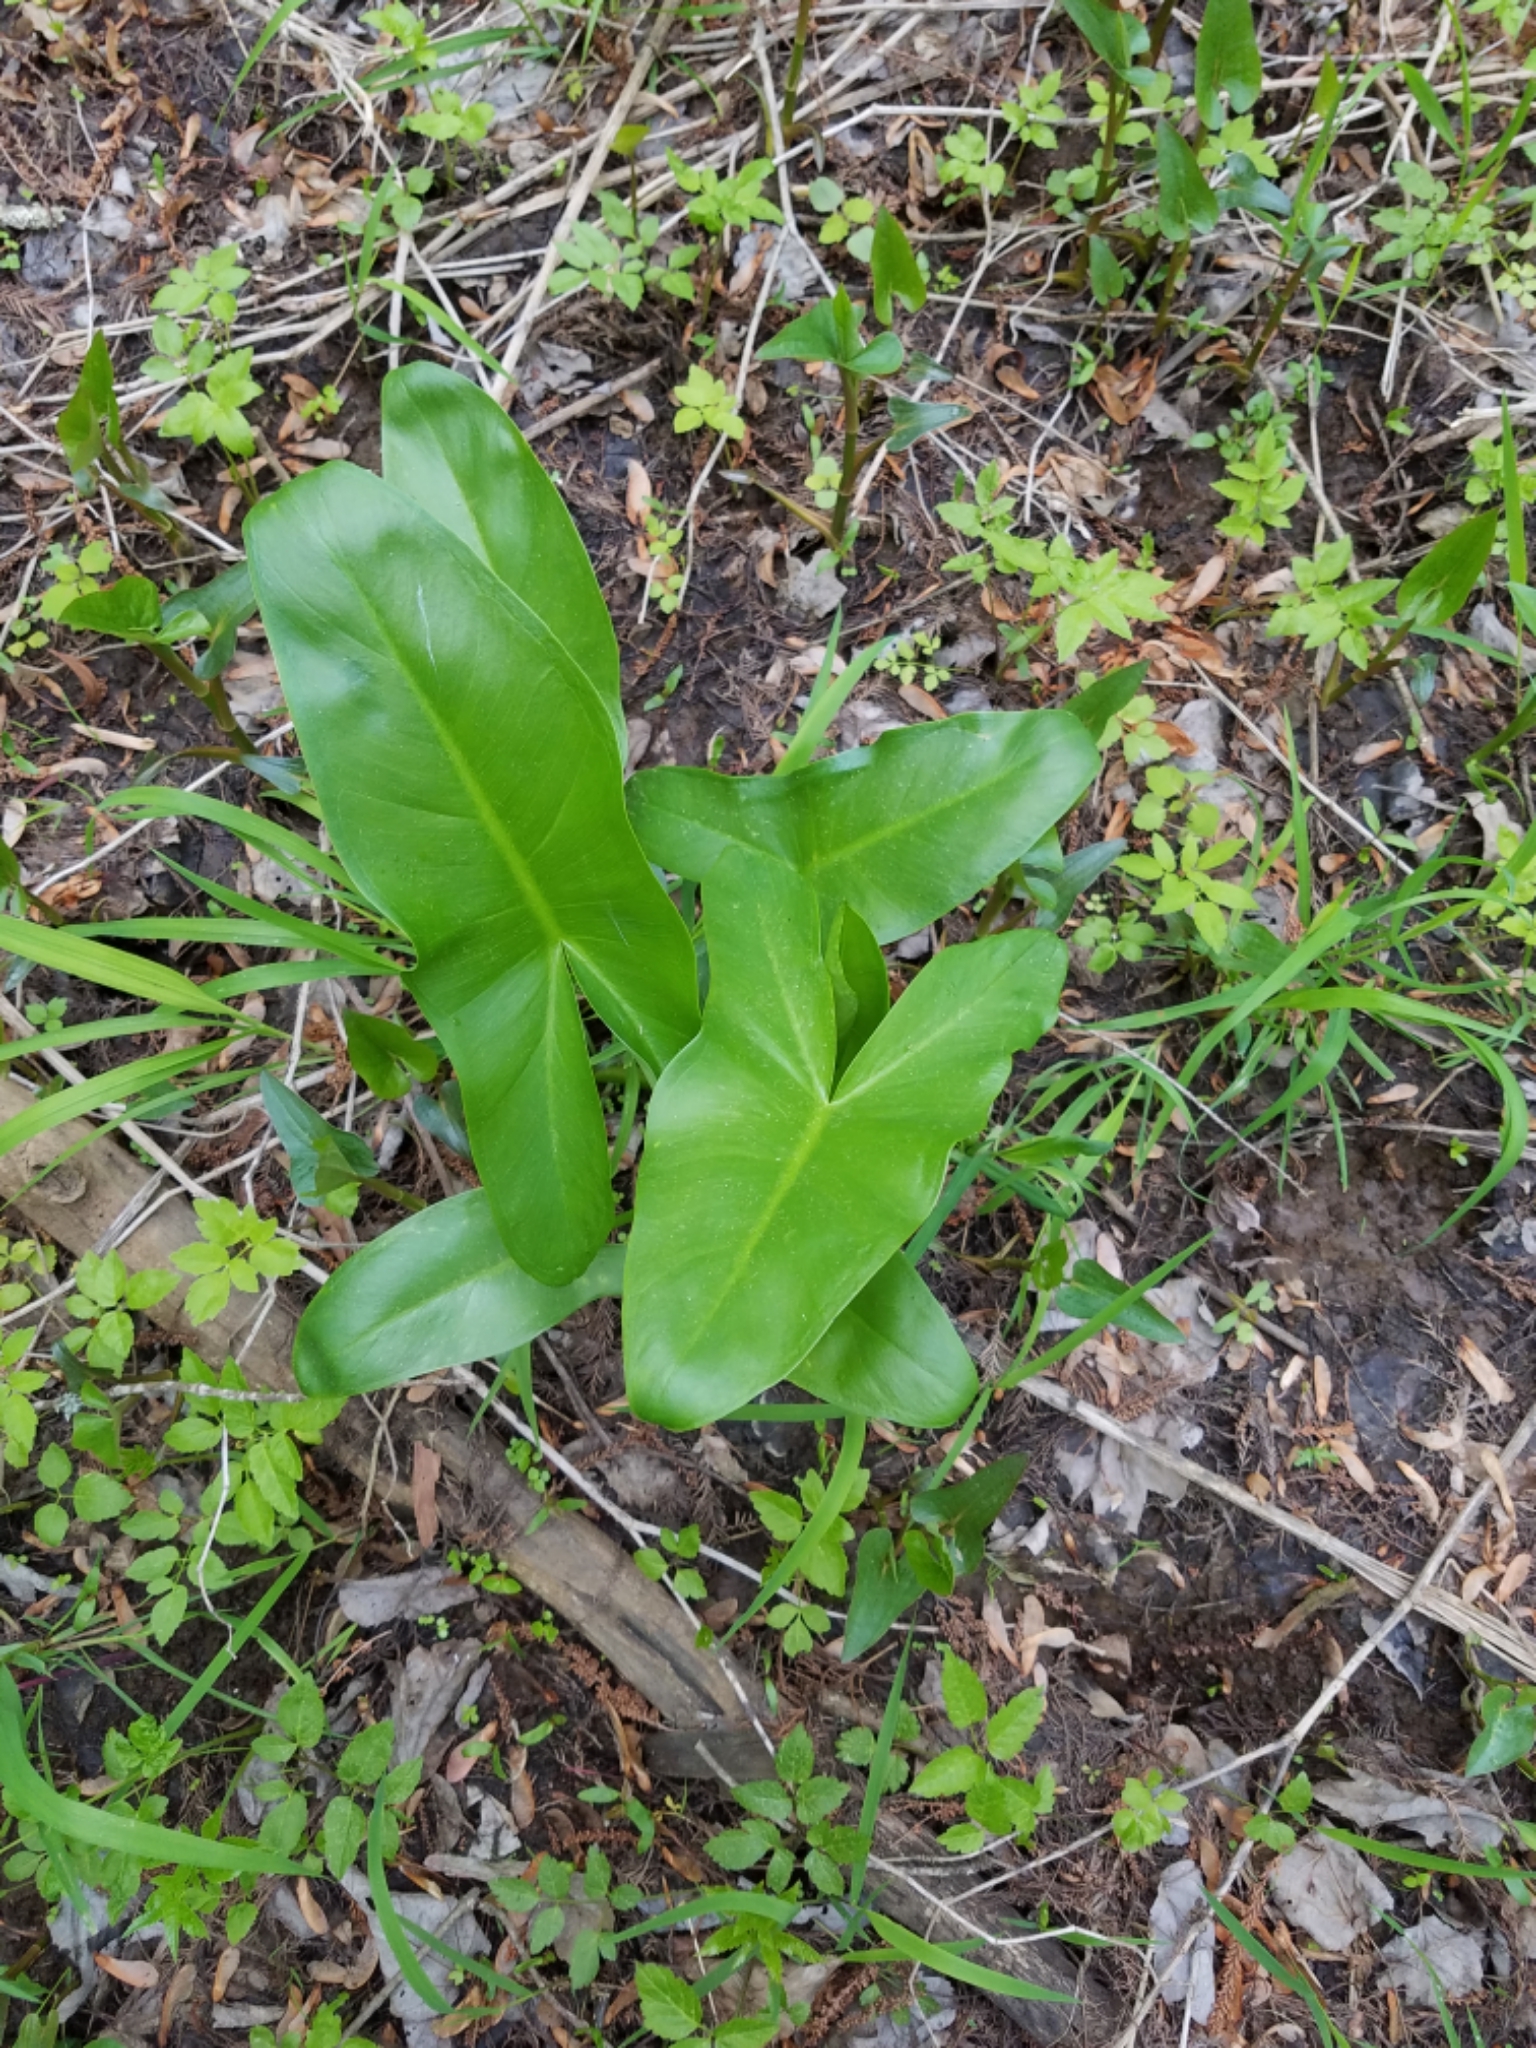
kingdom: Plantae
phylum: Tracheophyta
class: Liliopsida
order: Alismatales
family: Araceae
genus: Peltandra
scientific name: Peltandra virginica
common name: Arrow arum
